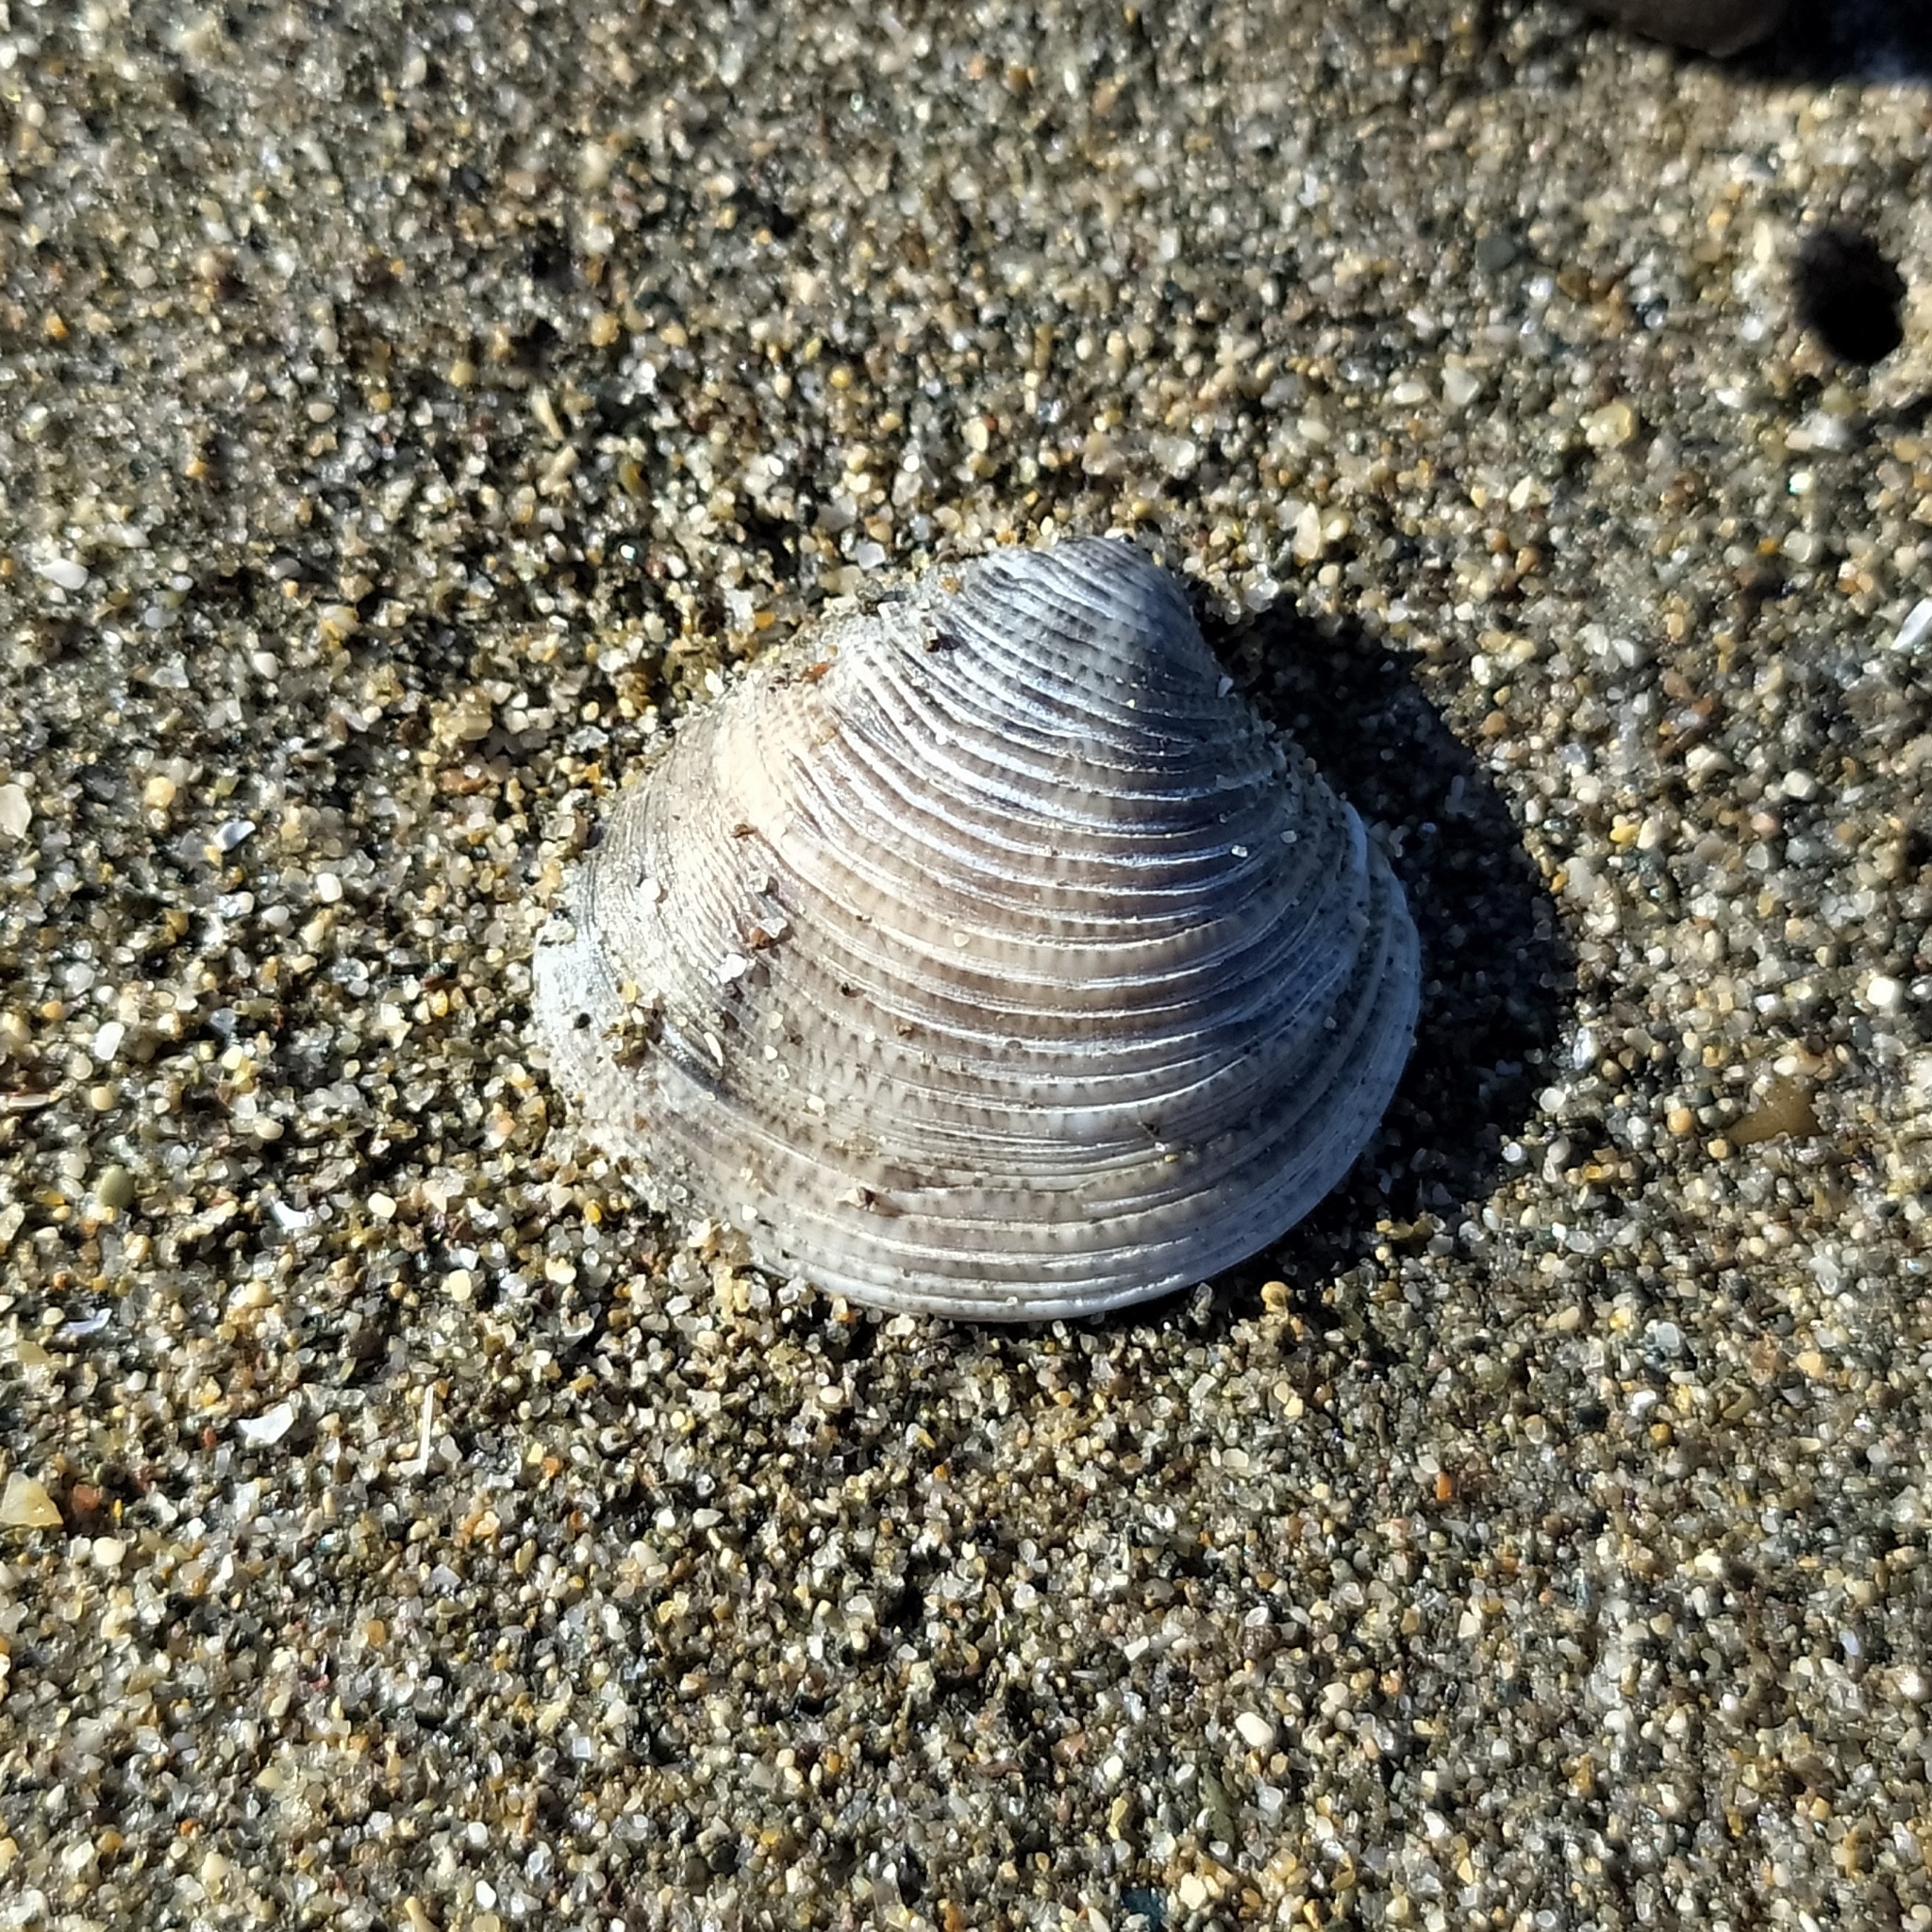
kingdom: Animalia
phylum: Mollusca
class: Bivalvia
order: Venerida
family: Veneridae
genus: Chamelea
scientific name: Chamelea gallina
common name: Chicken venus
